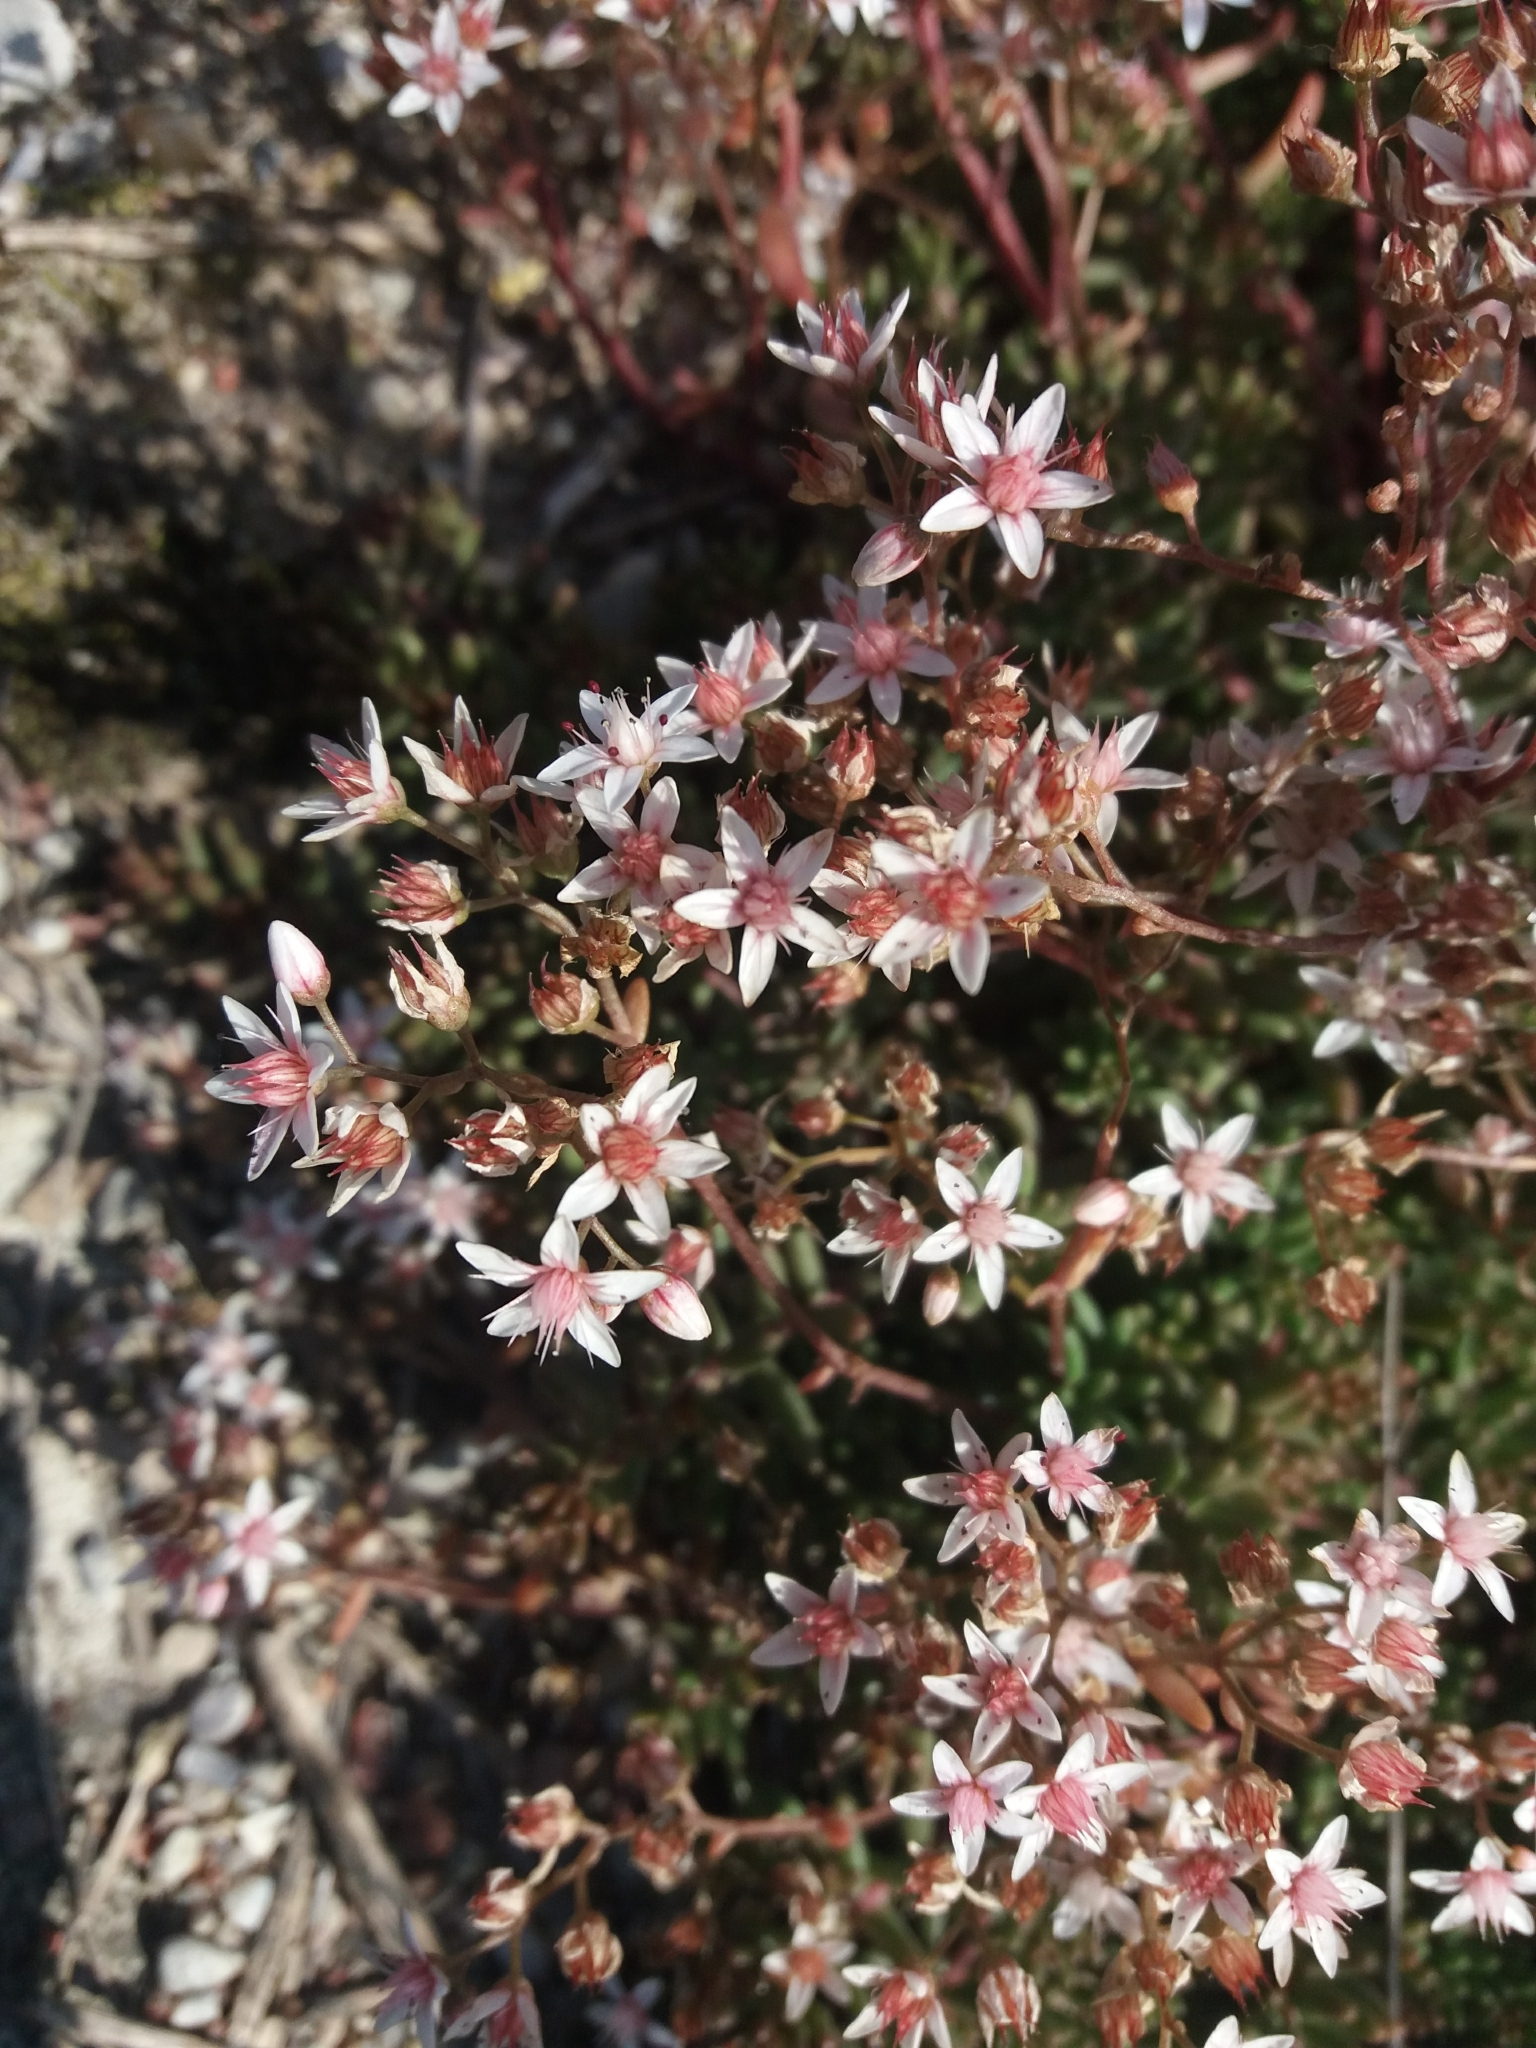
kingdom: Plantae
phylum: Tracheophyta
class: Magnoliopsida
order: Saxifragales
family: Crassulaceae
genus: Sedum
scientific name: Sedum album
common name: White stonecrop
